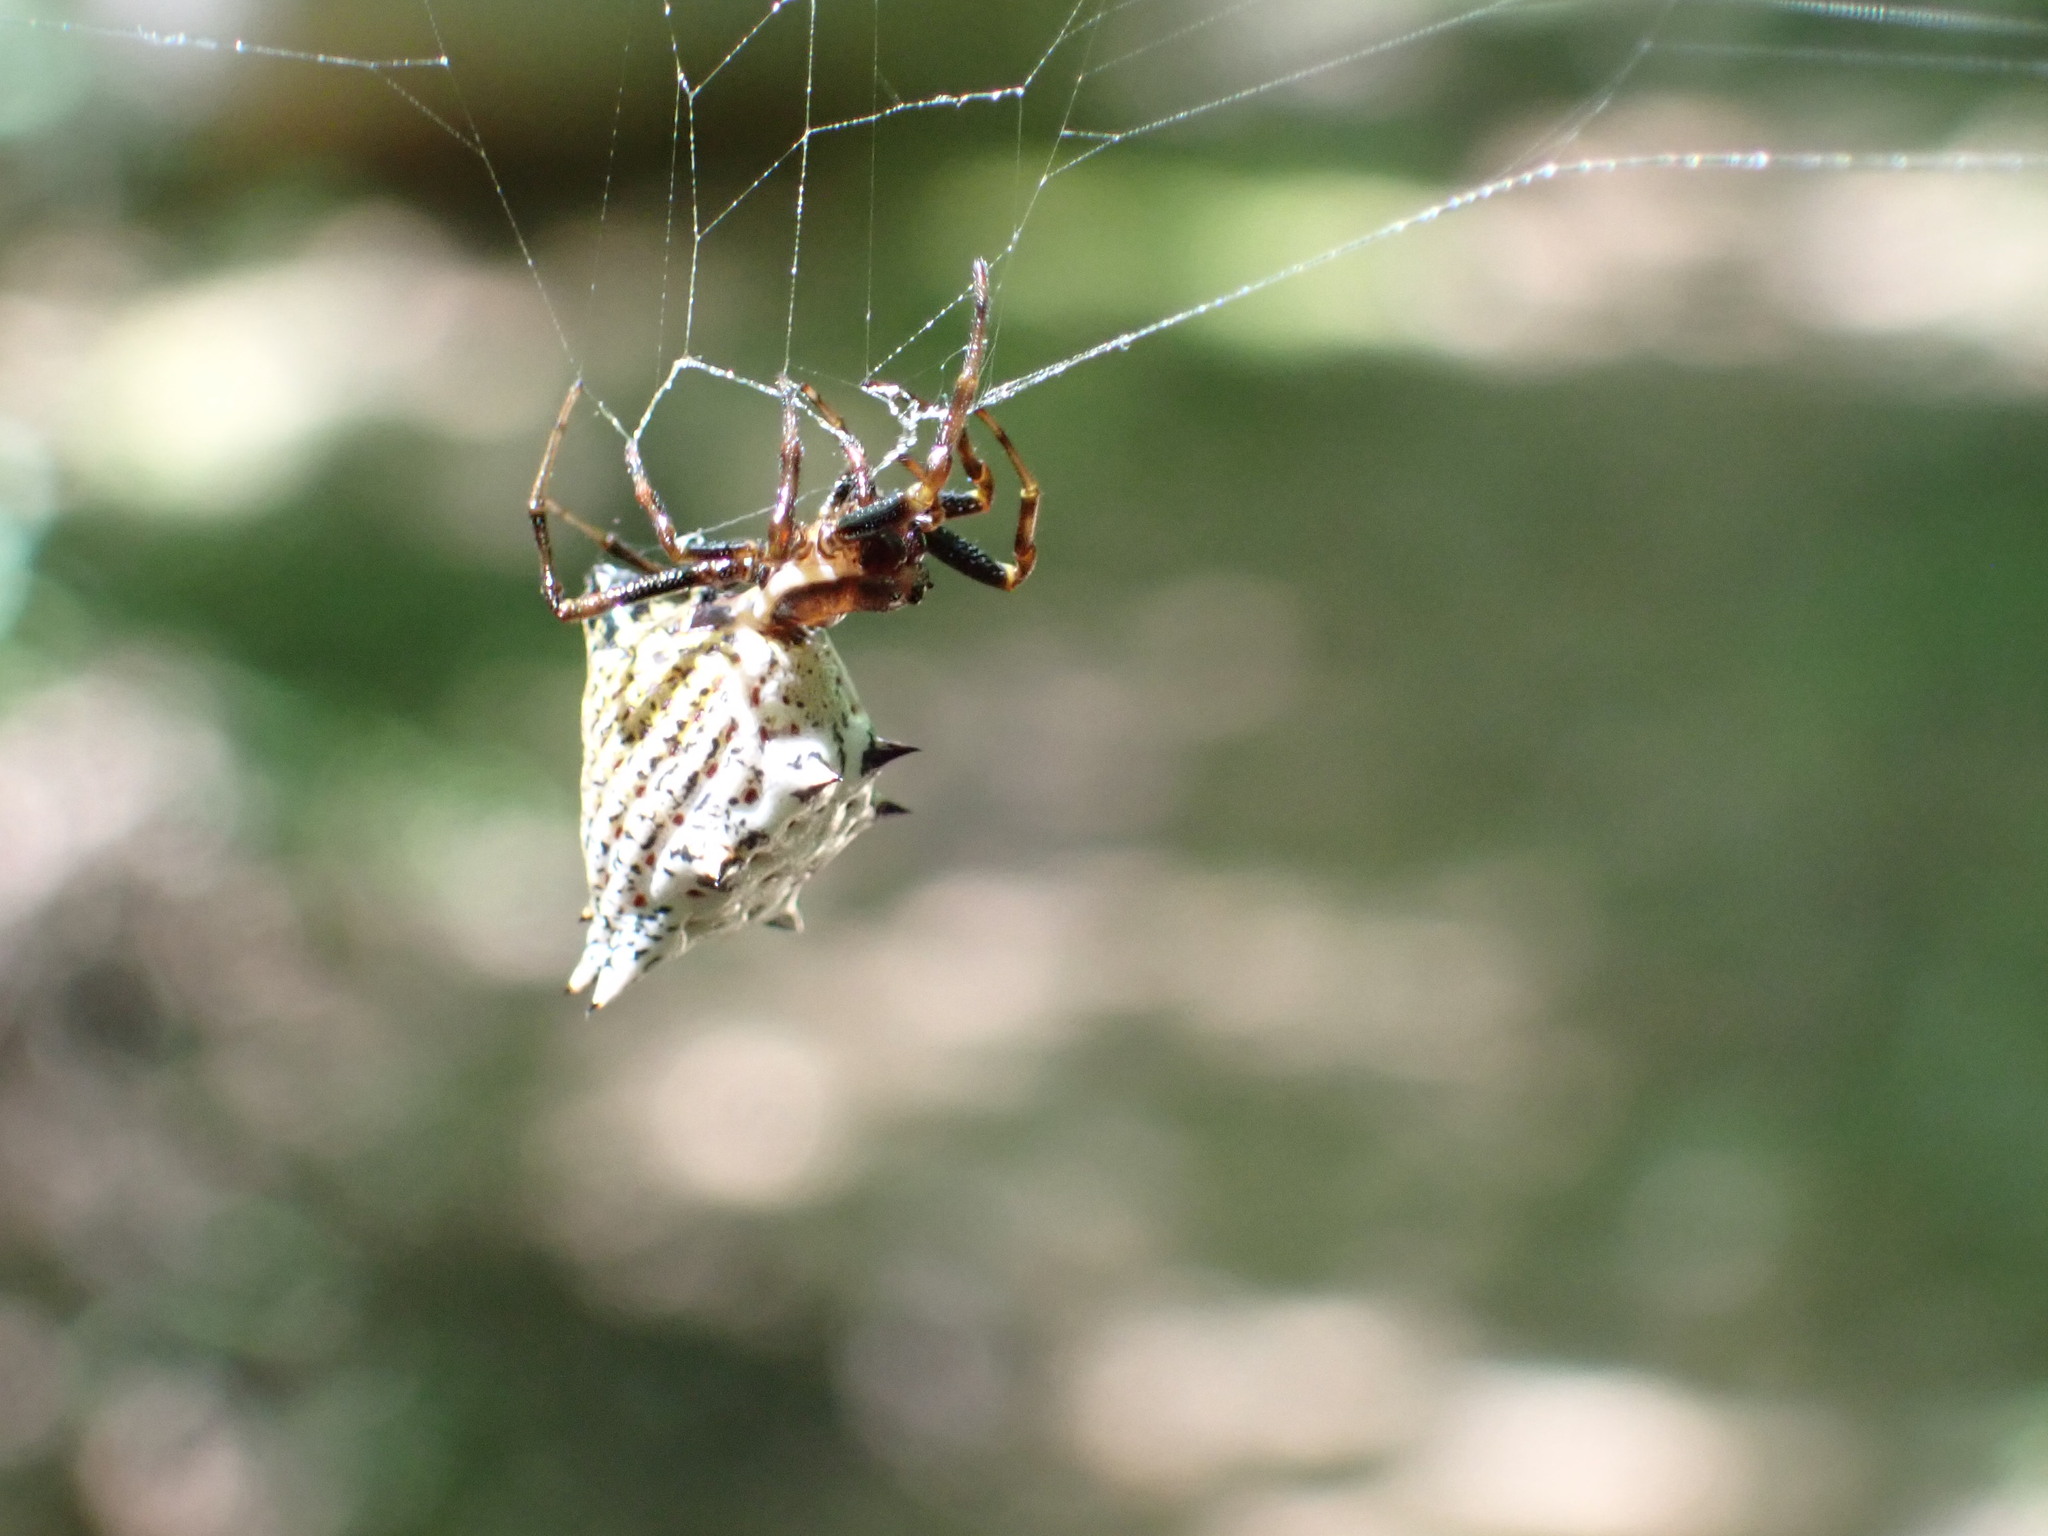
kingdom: Animalia
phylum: Arthropoda
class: Arachnida
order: Araneae
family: Araneidae
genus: Micrathena
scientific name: Micrathena gracilis
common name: Orb weavers
